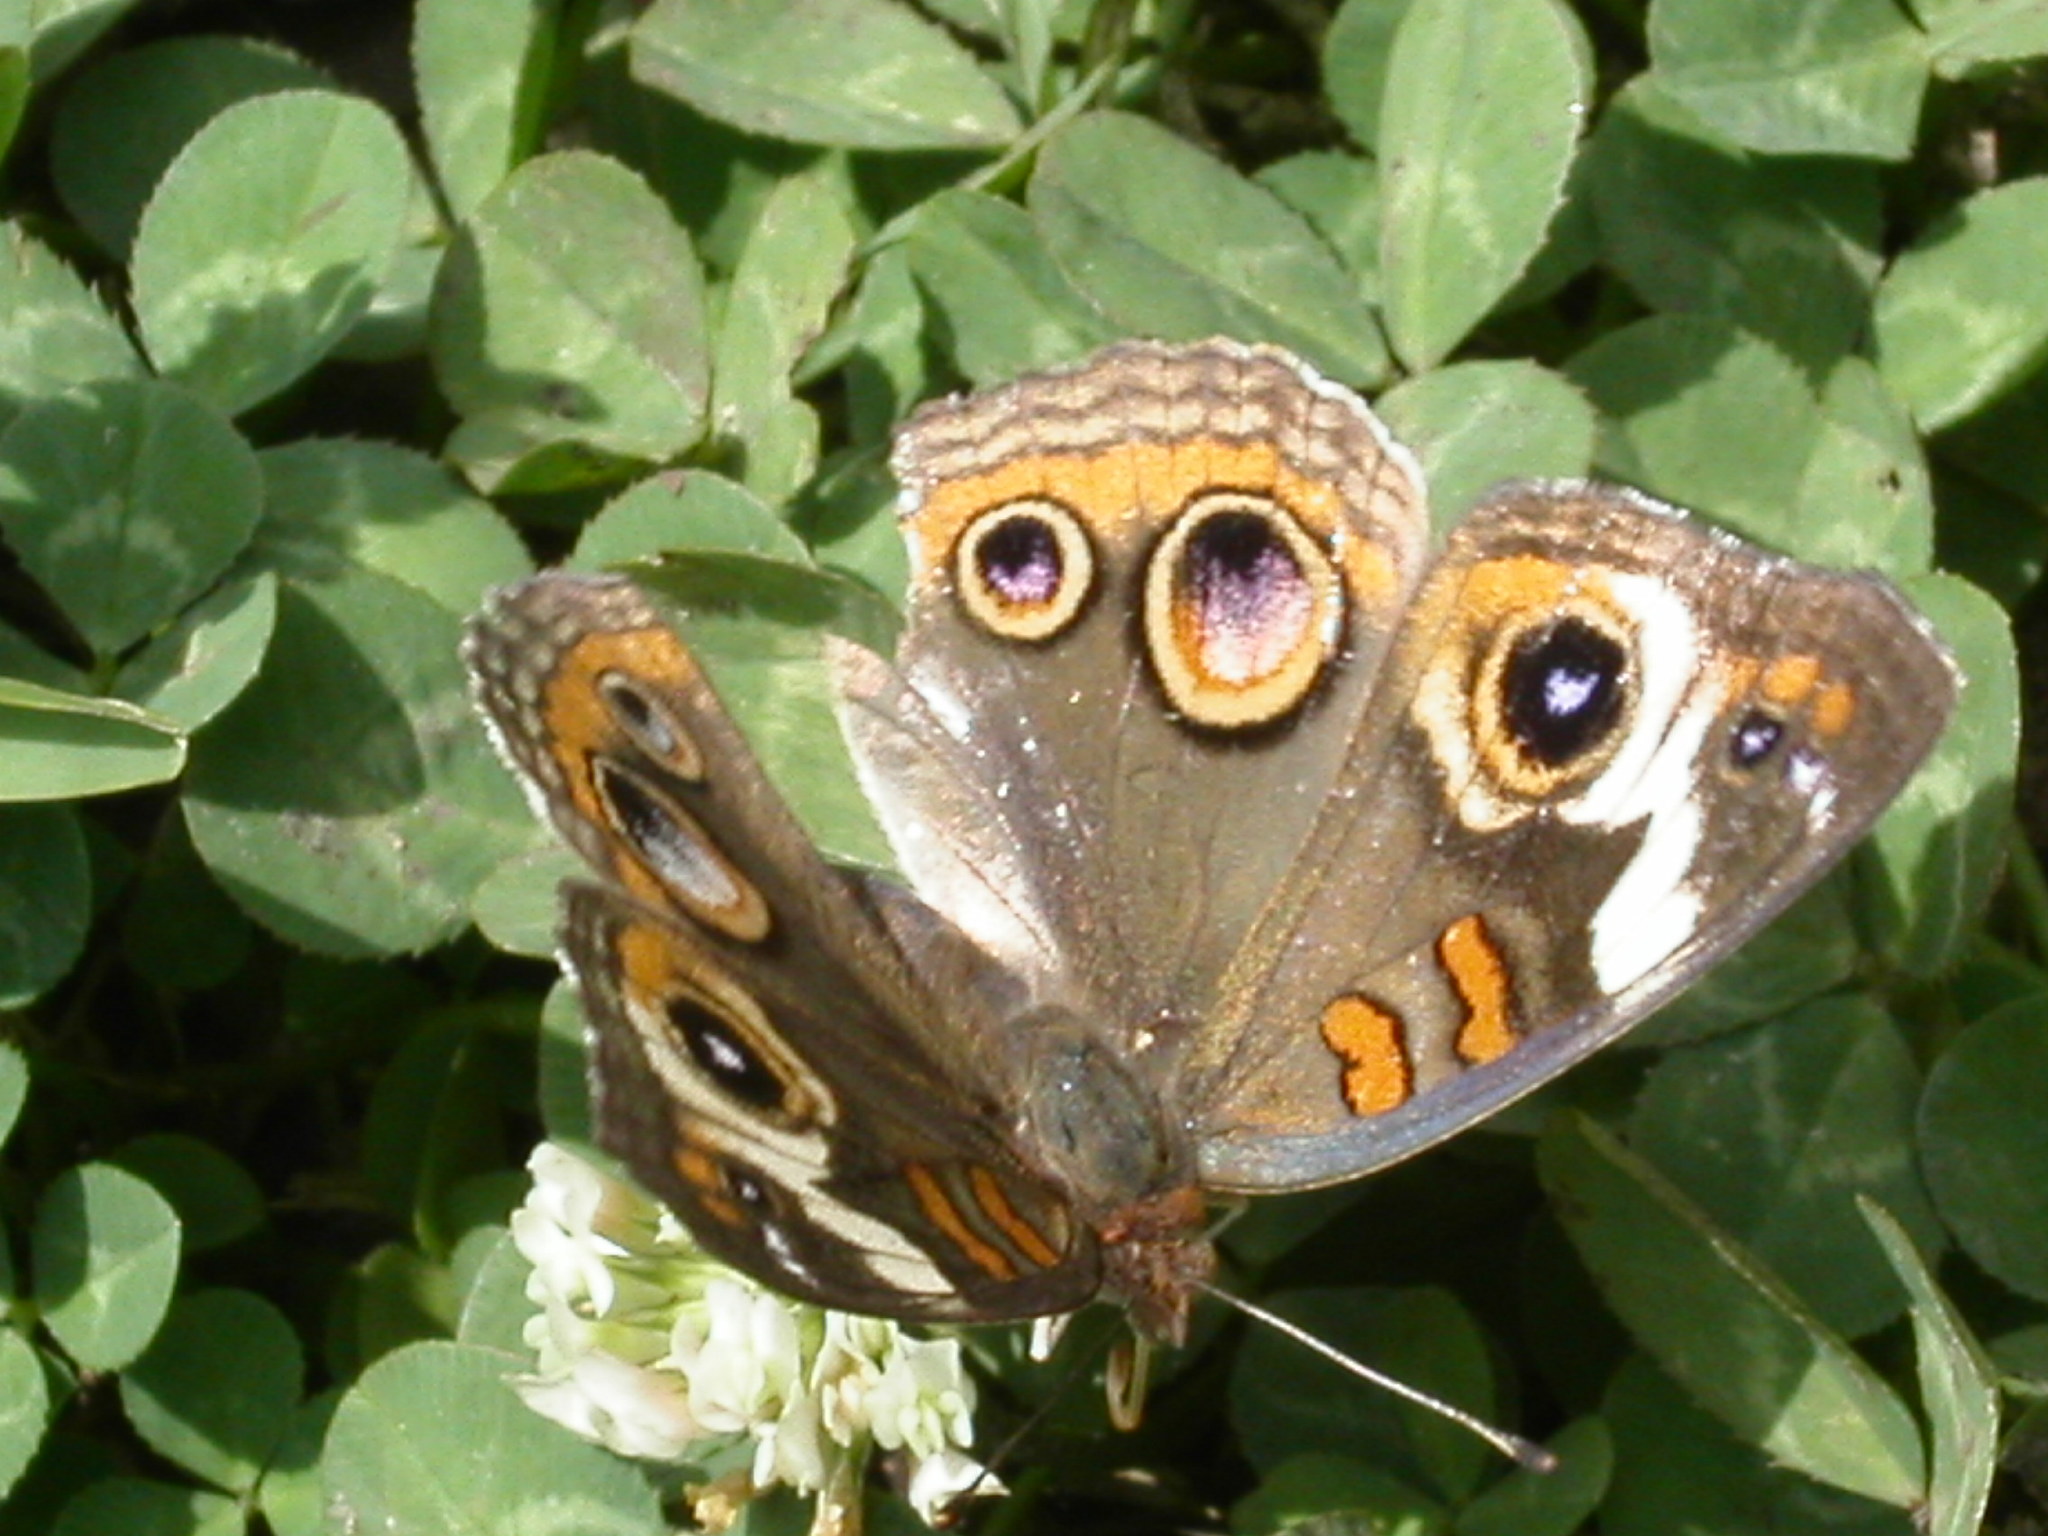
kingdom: Animalia
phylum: Arthropoda
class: Insecta
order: Lepidoptera
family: Nymphalidae
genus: Junonia
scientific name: Junonia coenia
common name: Common buckeye
